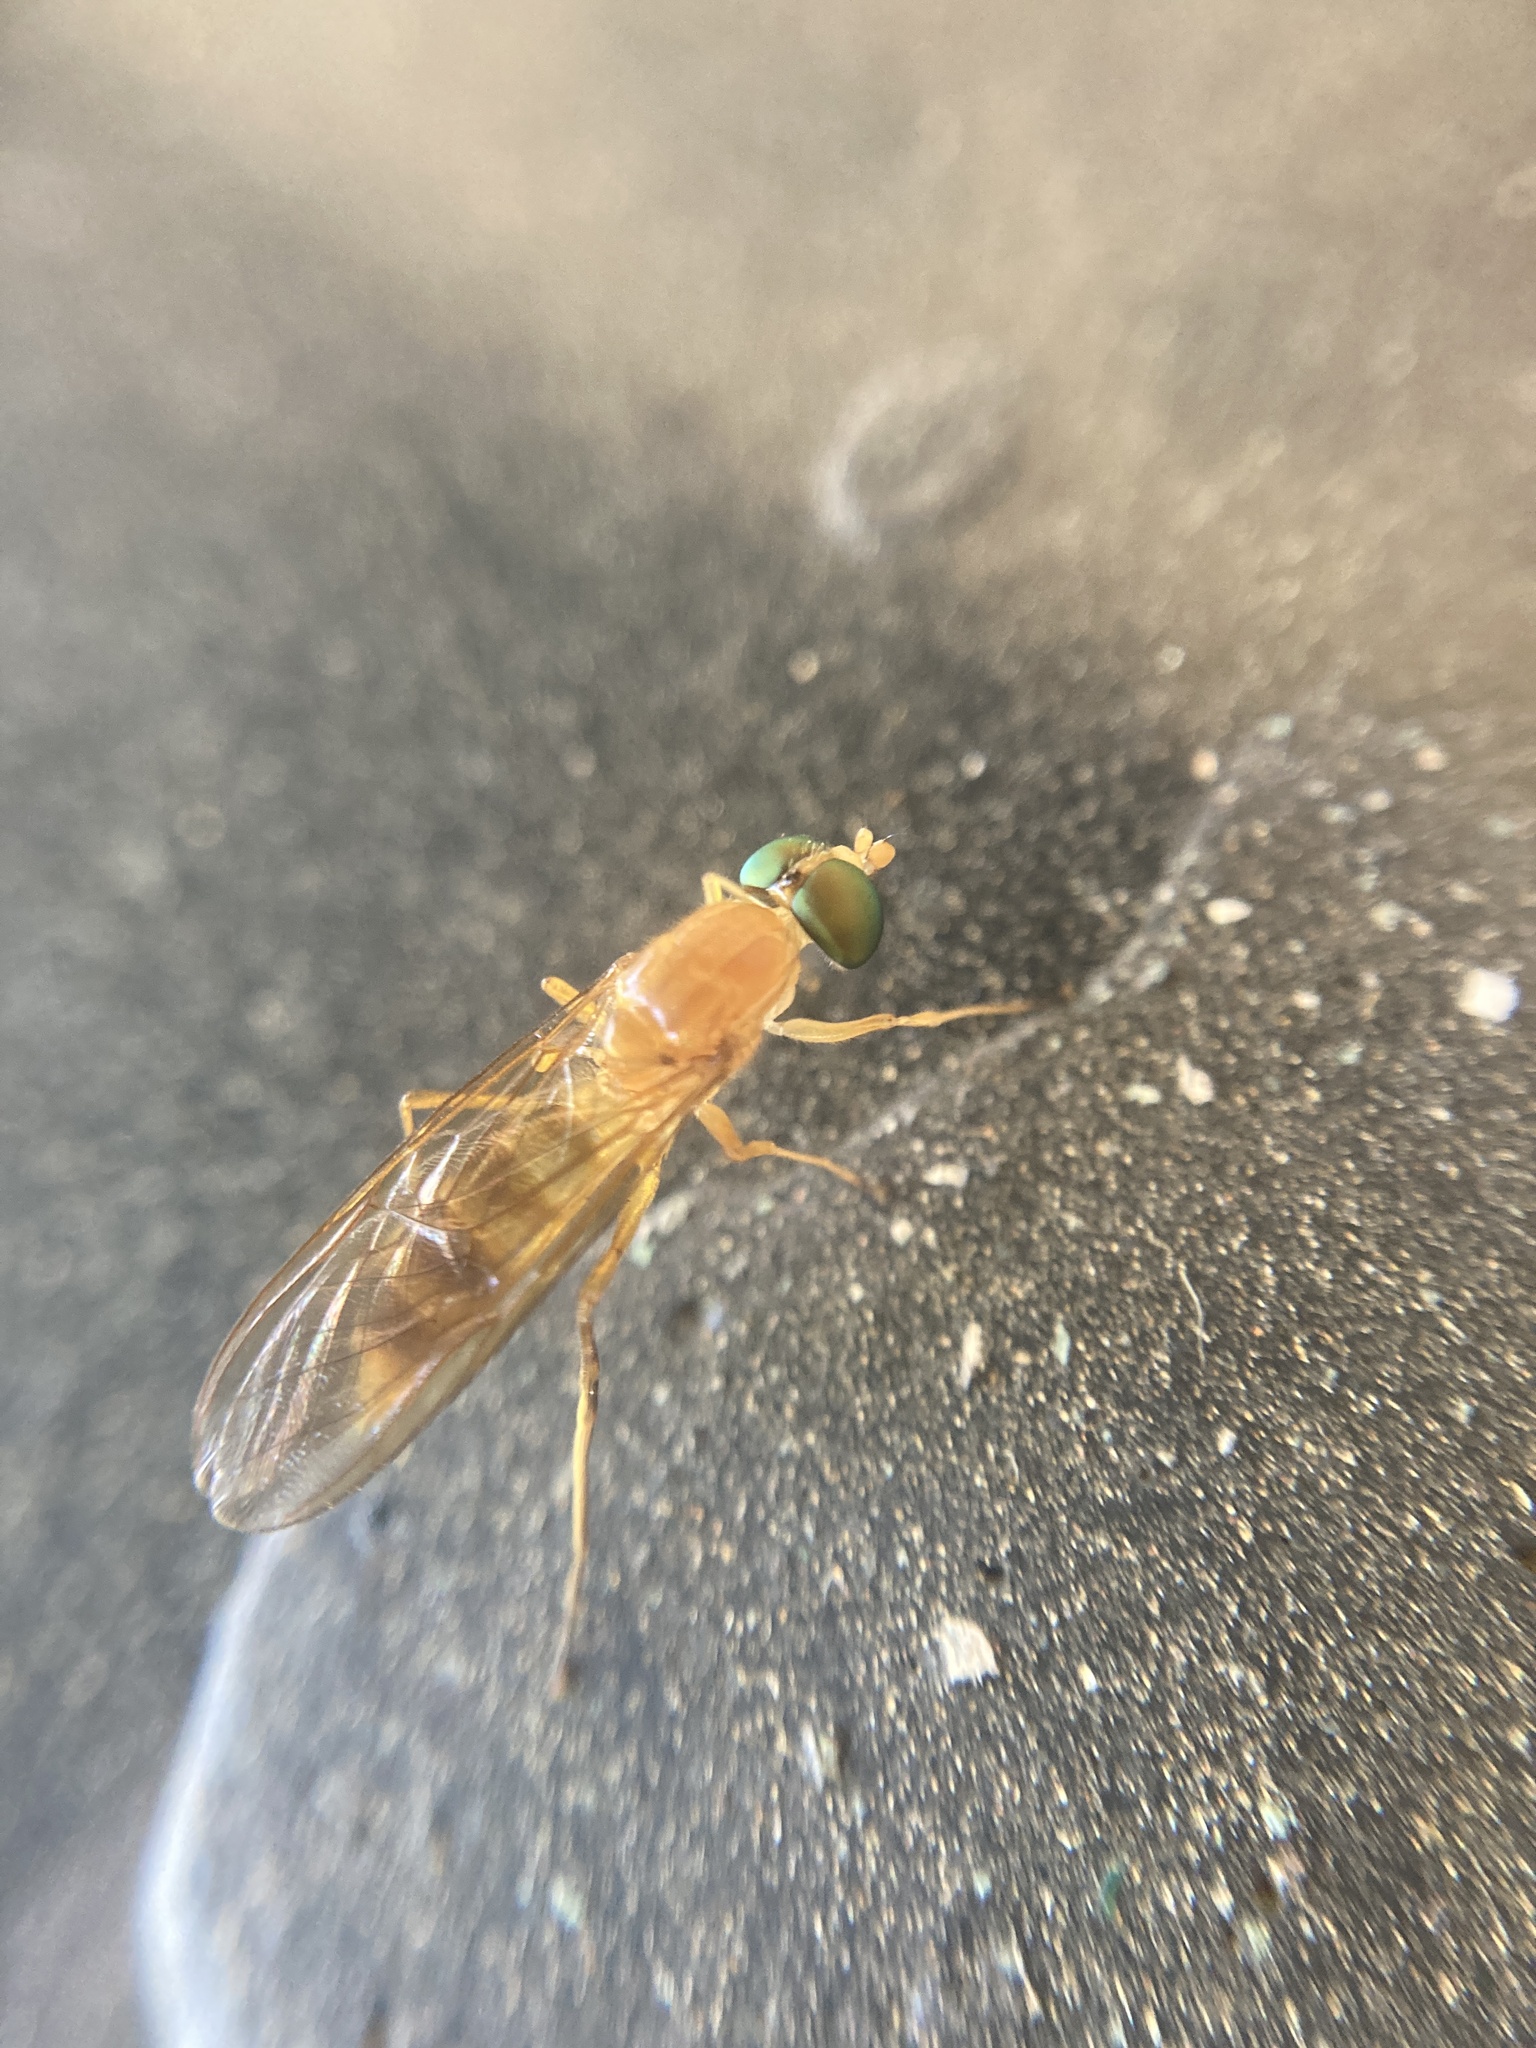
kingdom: Animalia
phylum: Arthropoda
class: Insecta
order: Diptera
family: Stratiomyidae
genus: Ptecticus
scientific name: Ptecticus trivittatus
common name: Compost fly
